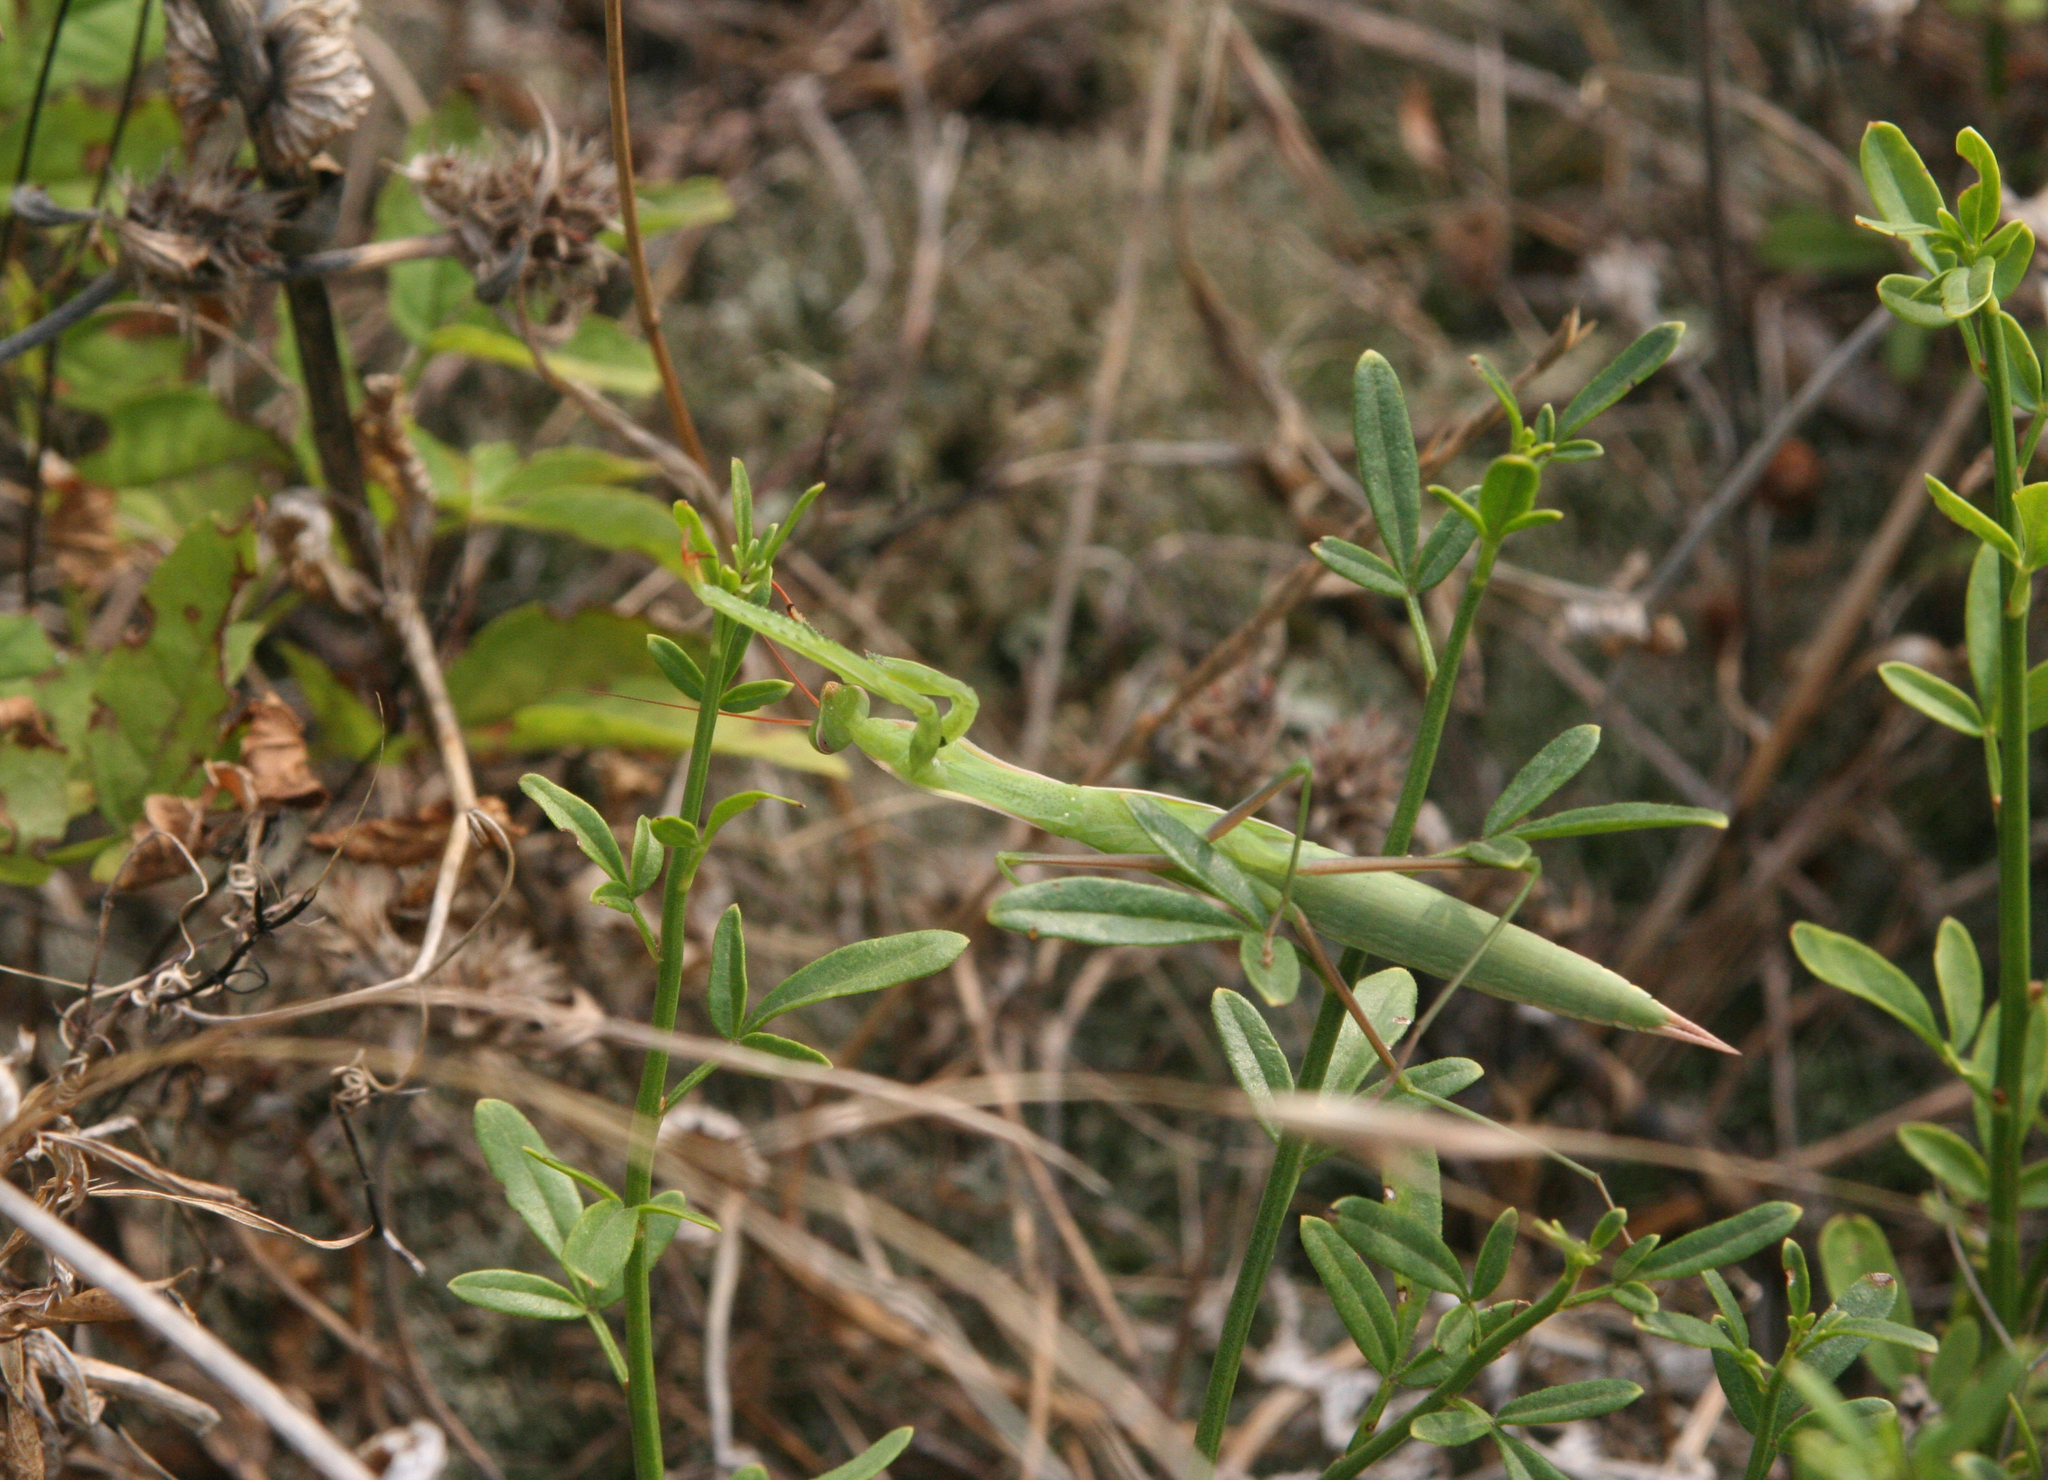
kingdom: Animalia
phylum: Arthropoda
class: Insecta
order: Mantodea
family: Mantidae
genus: Mantis
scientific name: Mantis religiosa
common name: Praying mantis
